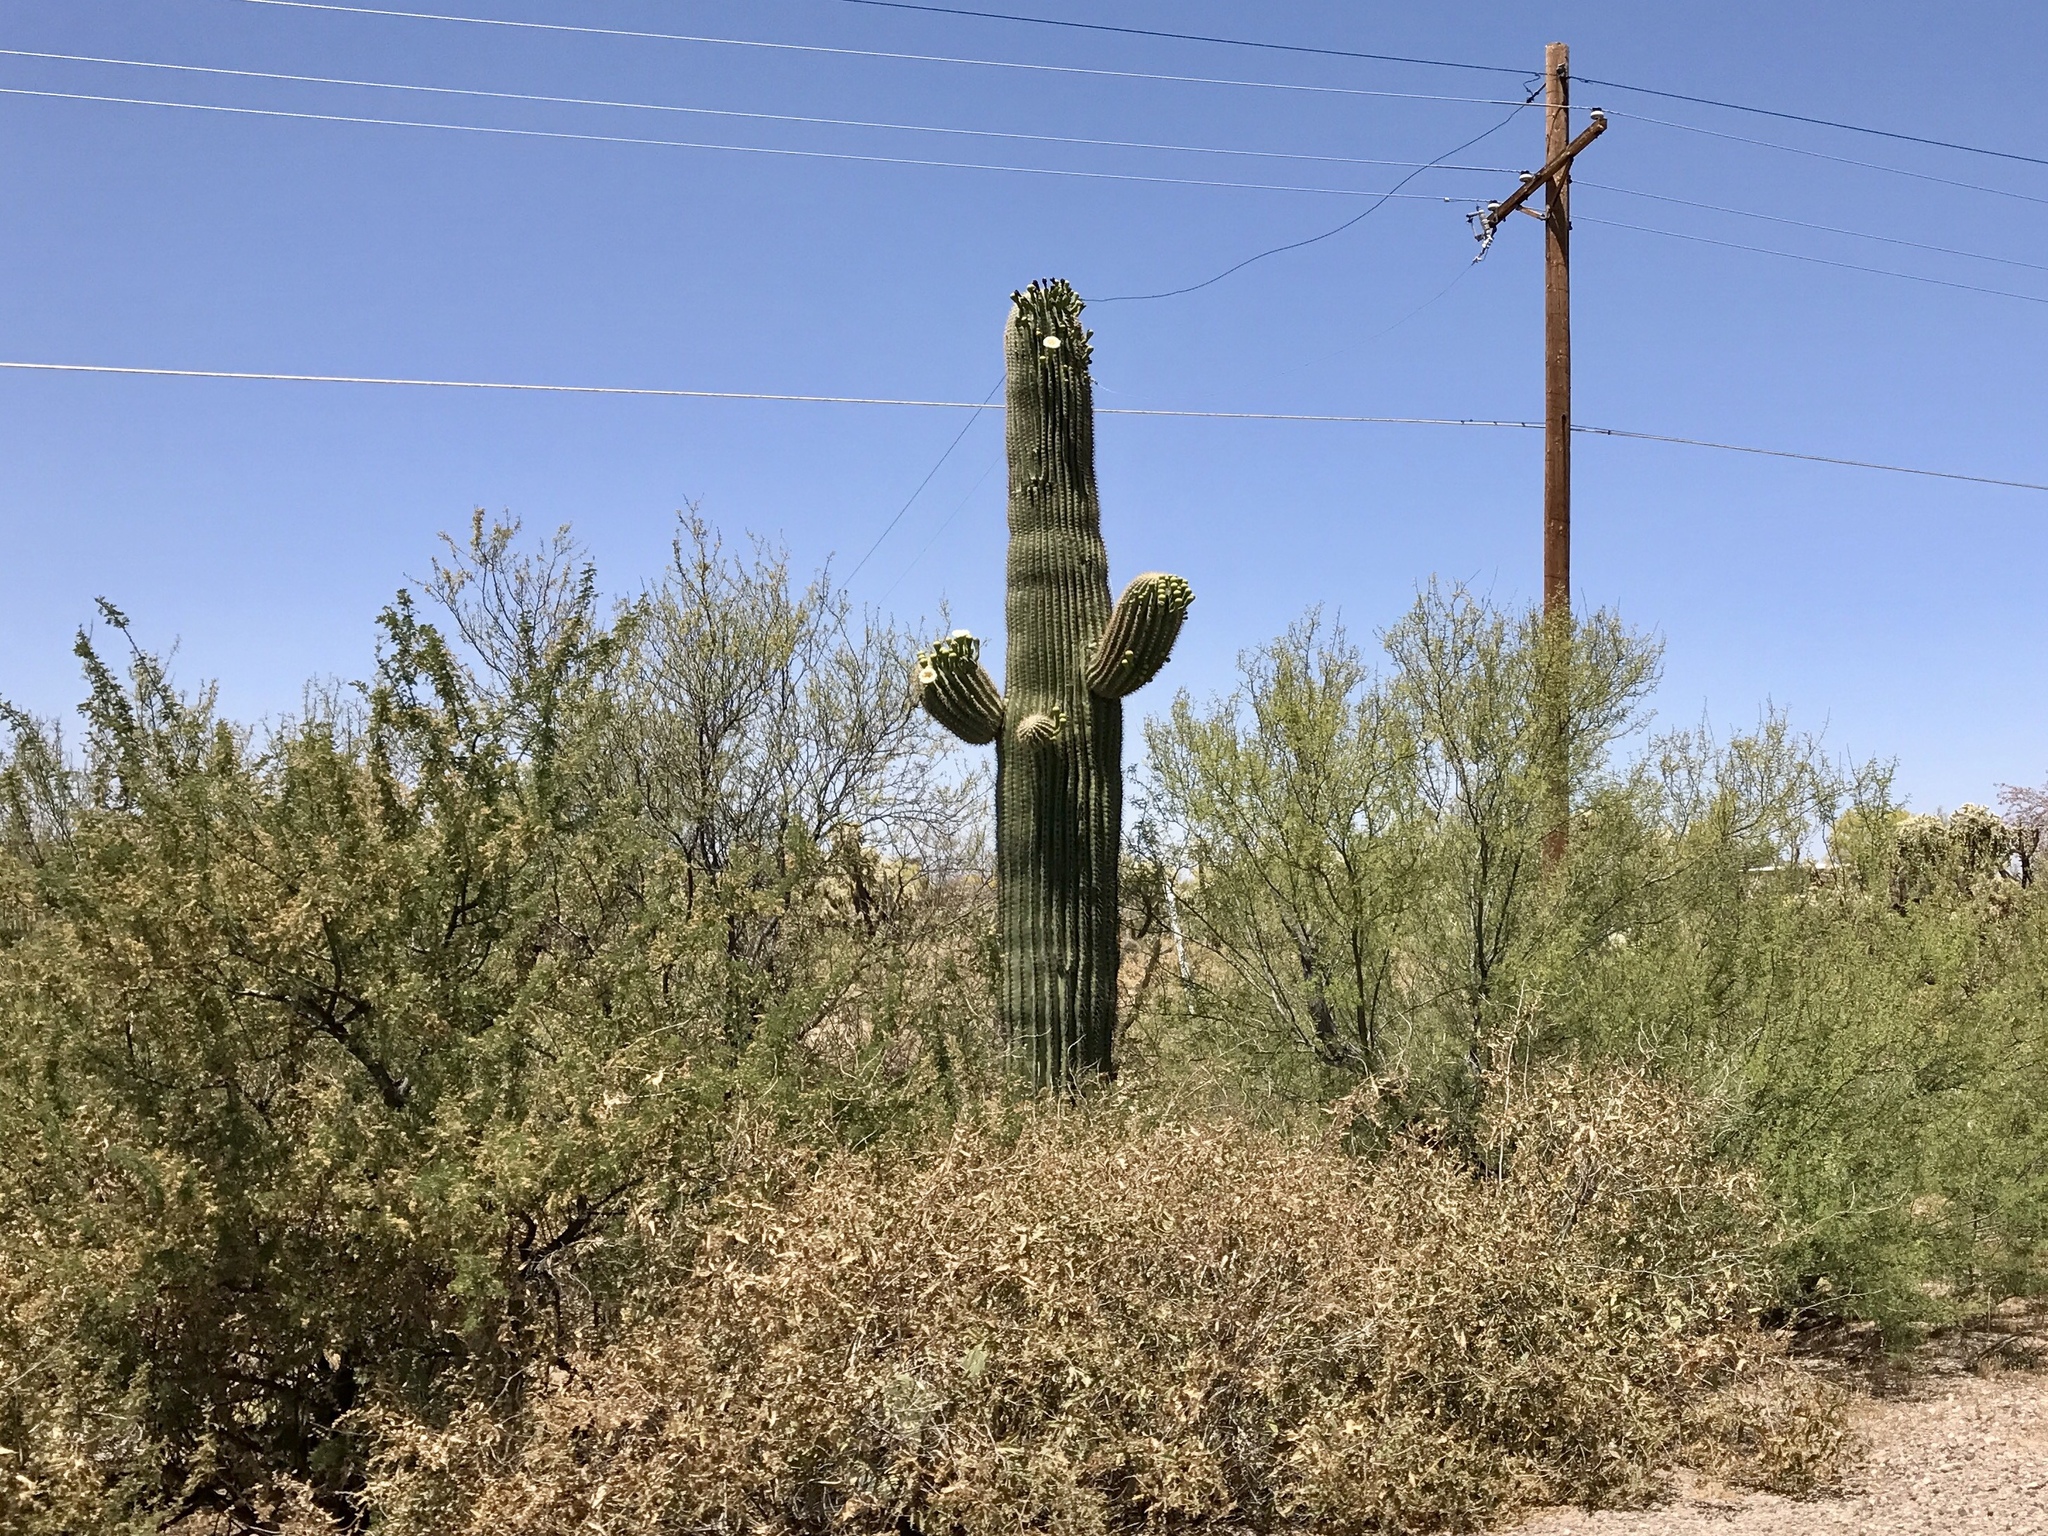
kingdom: Plantae
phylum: Tracheophyta
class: Magnoliopsida
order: Caryophyllales
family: Cactaceae
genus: Carnegiea
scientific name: Carnegiea gigantea
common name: Saguaro
